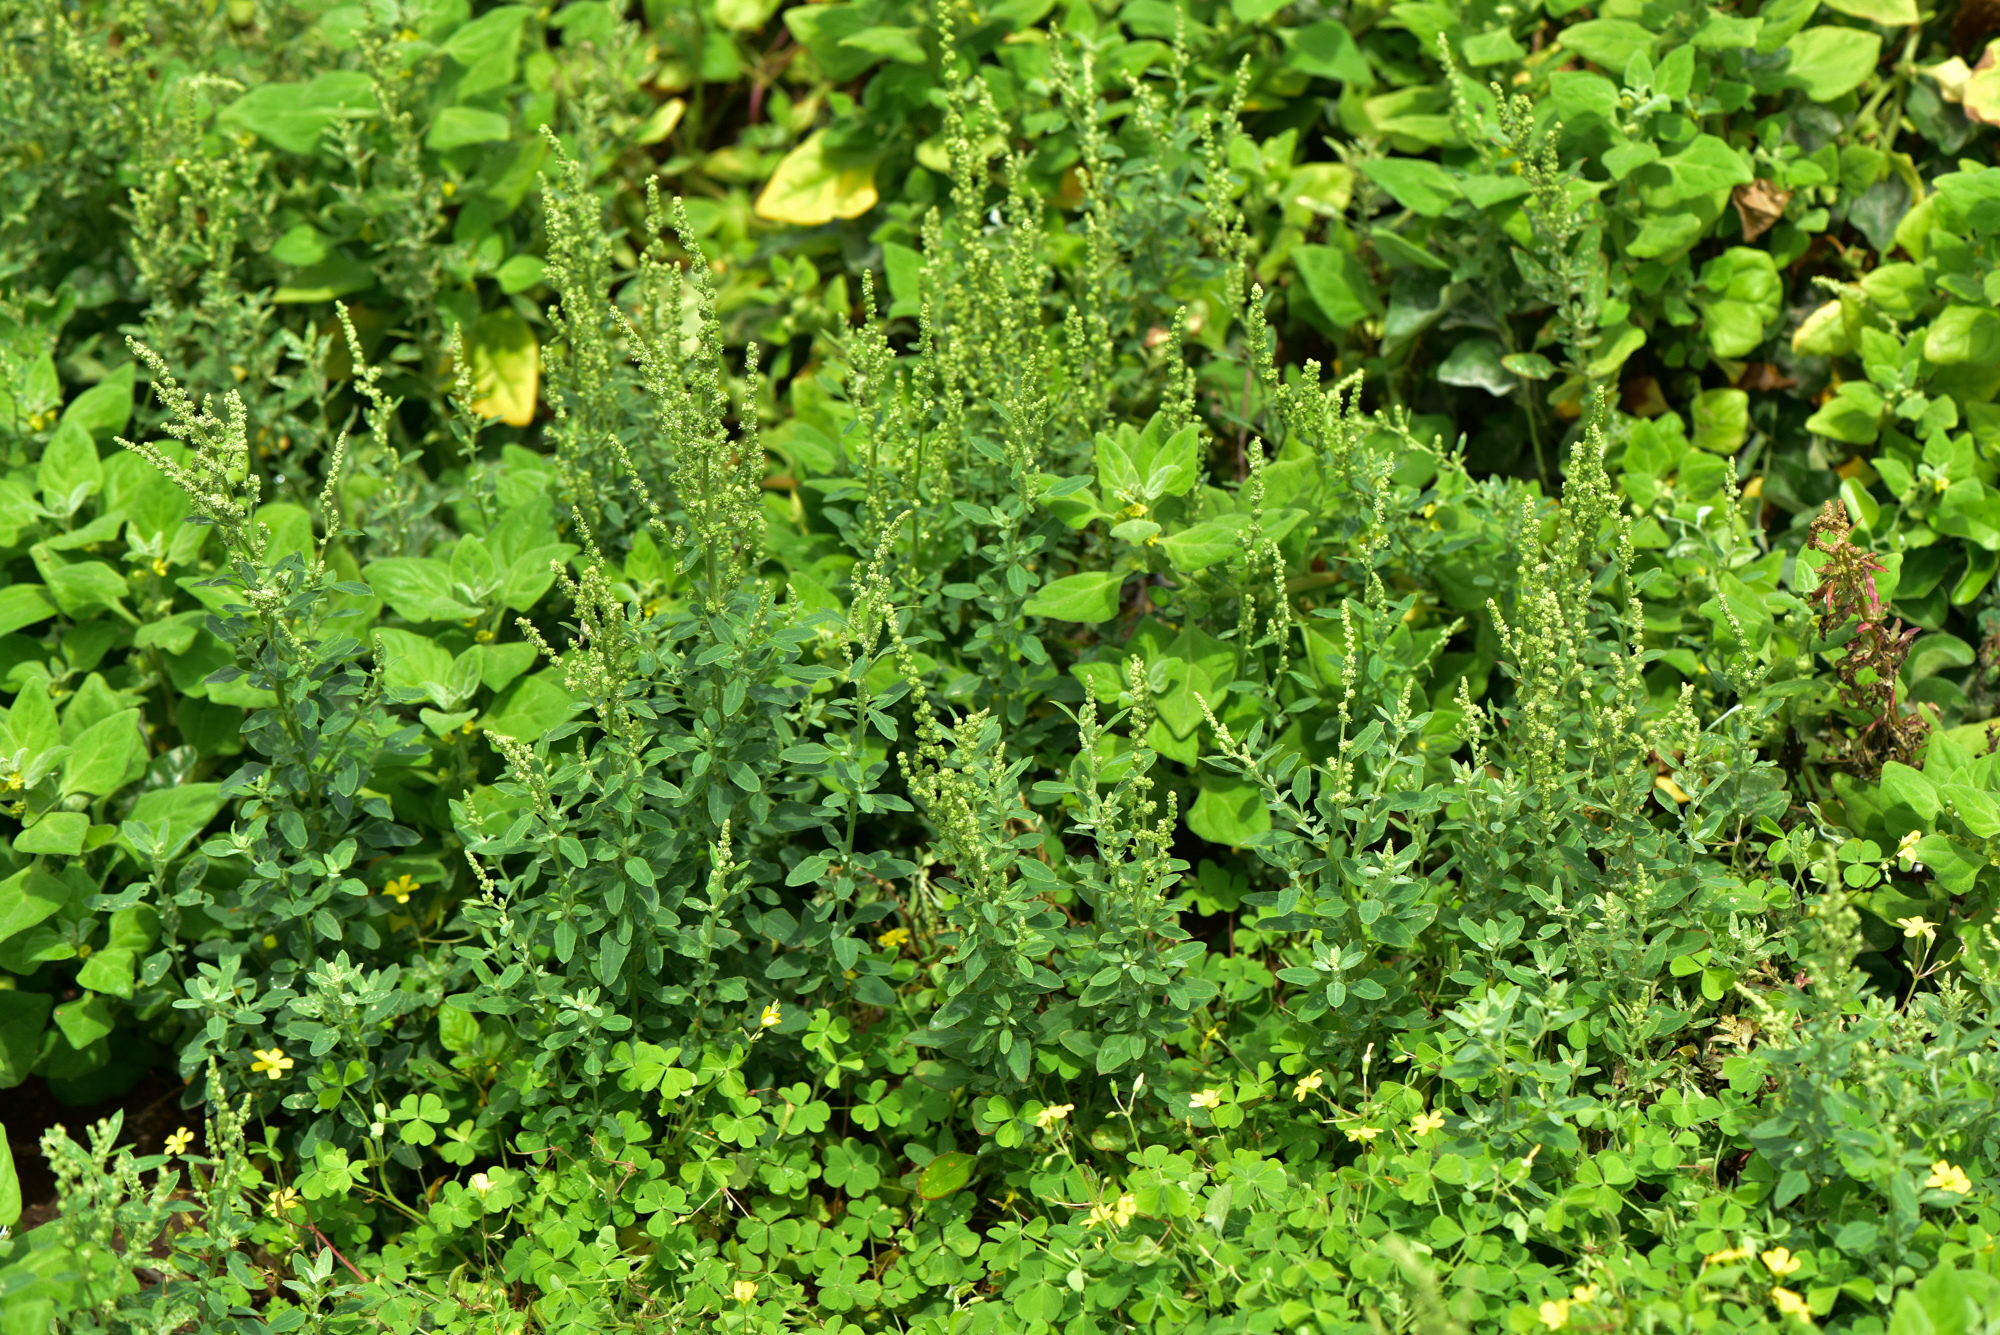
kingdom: Plantae
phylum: Tracheophyta
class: Magnoliopsida
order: Caryophyllales
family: Amaranthaceae
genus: Chenopodium
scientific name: Chenopodium acuminatum
